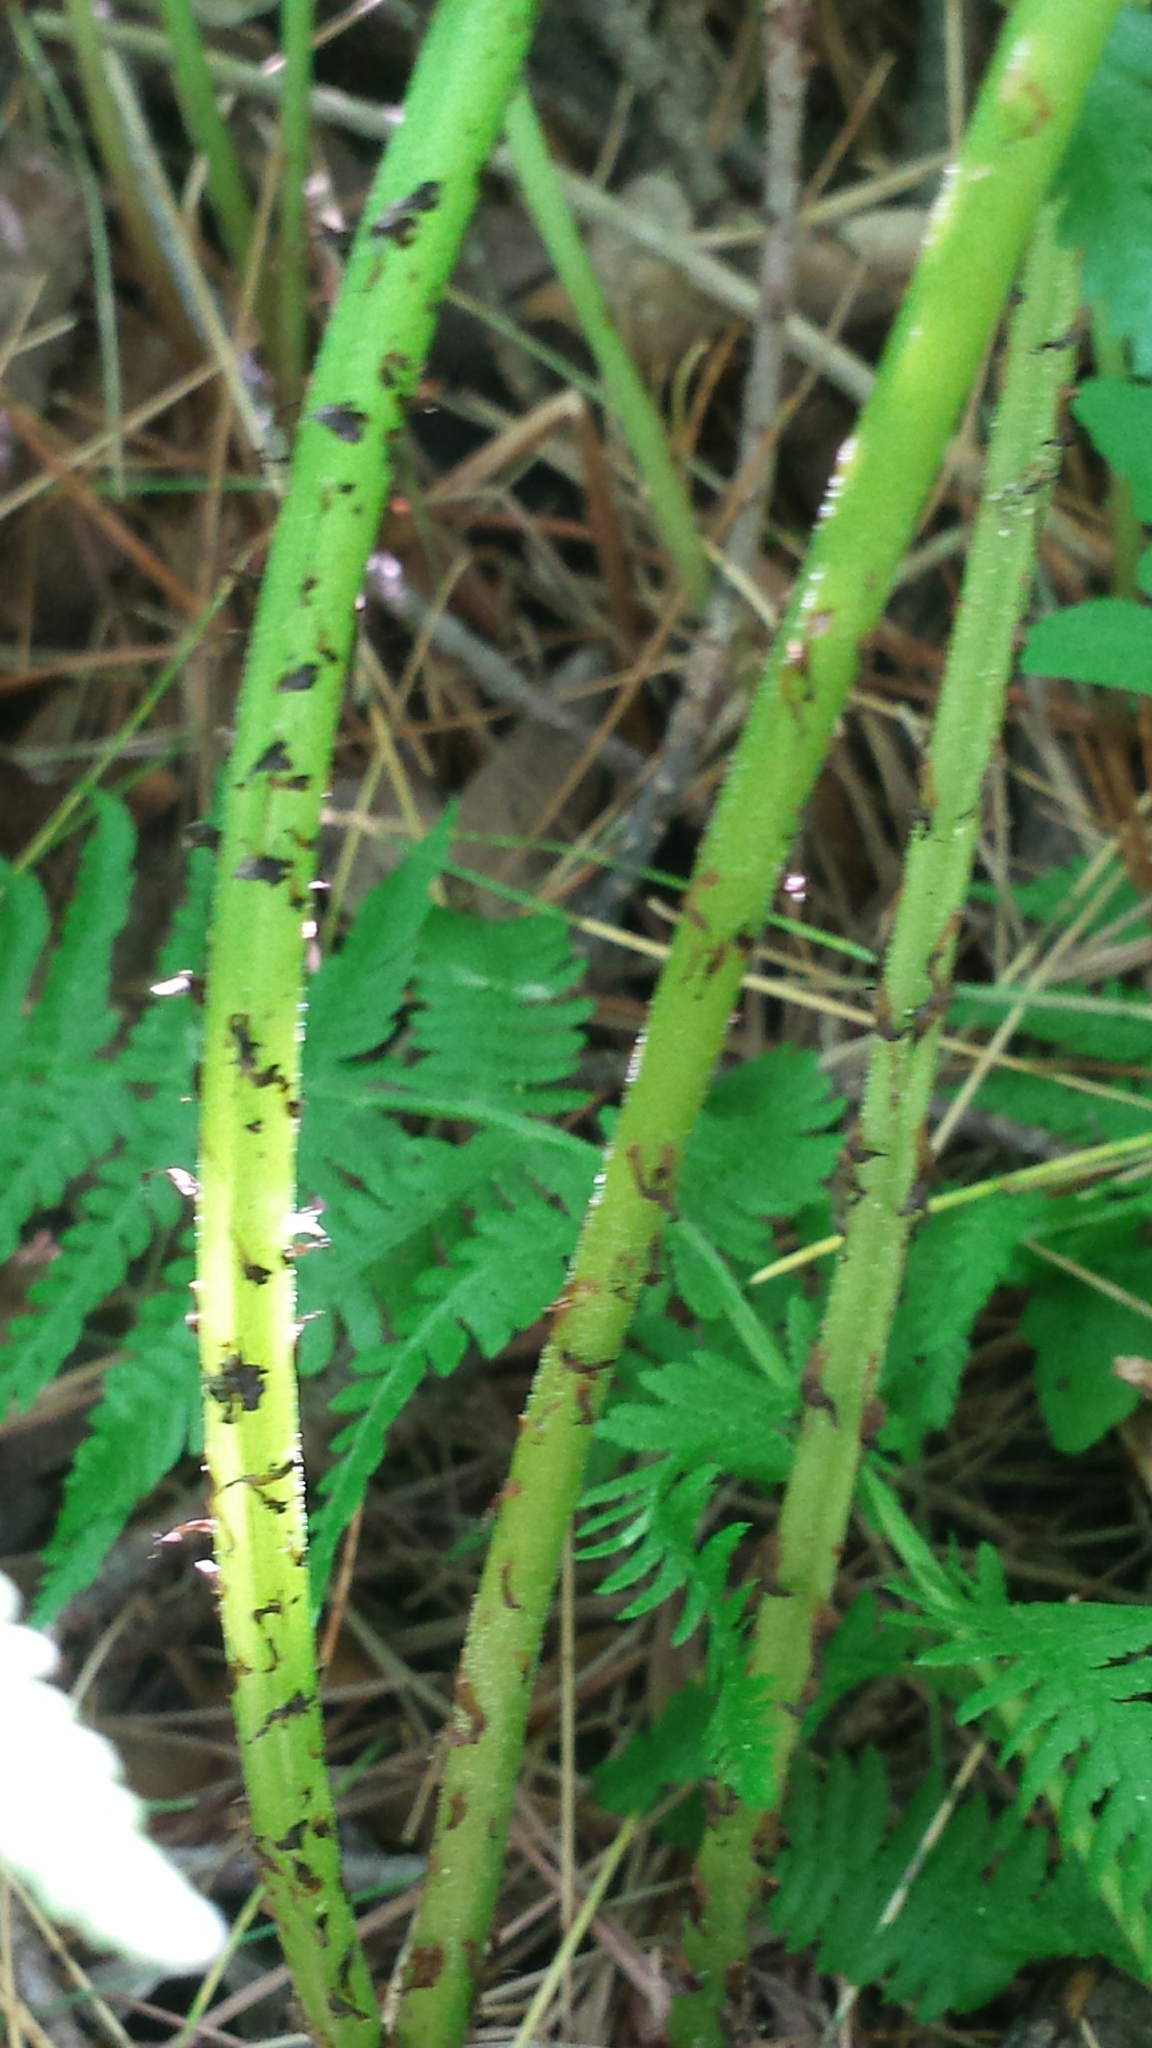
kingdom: Plantae
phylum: Tracheophyta
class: Polypodiopsida
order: Polypodiales
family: Athyriaceae
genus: Athyrium
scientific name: Athyrium angustum
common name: Northern lady fern
